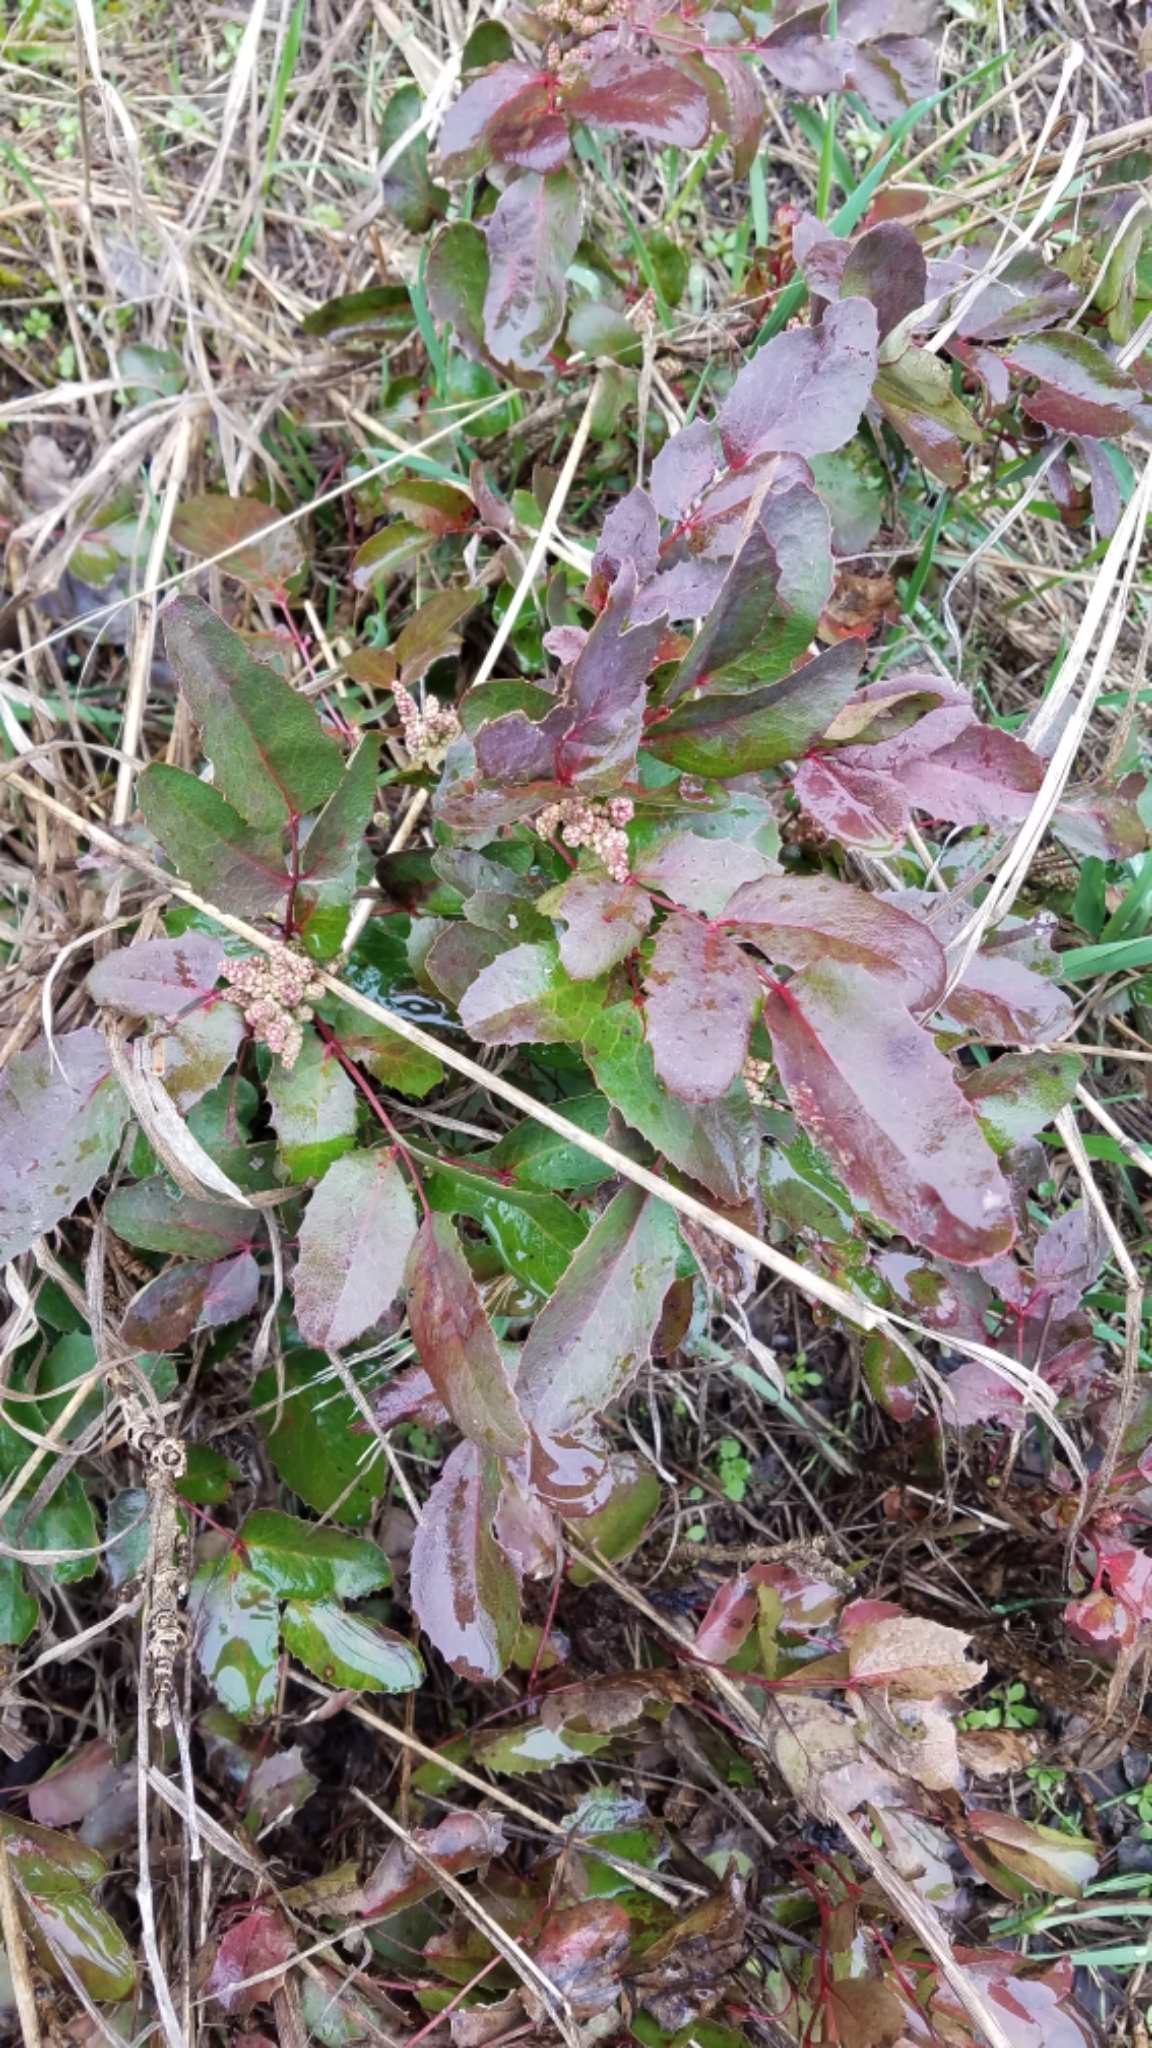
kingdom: Plantae
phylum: Tracheophyta
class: Magnoliopsida
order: Ranunculales
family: Berberidaceae
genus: Mahonia
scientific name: Mahonia repens
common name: Creeping oregon-grape
